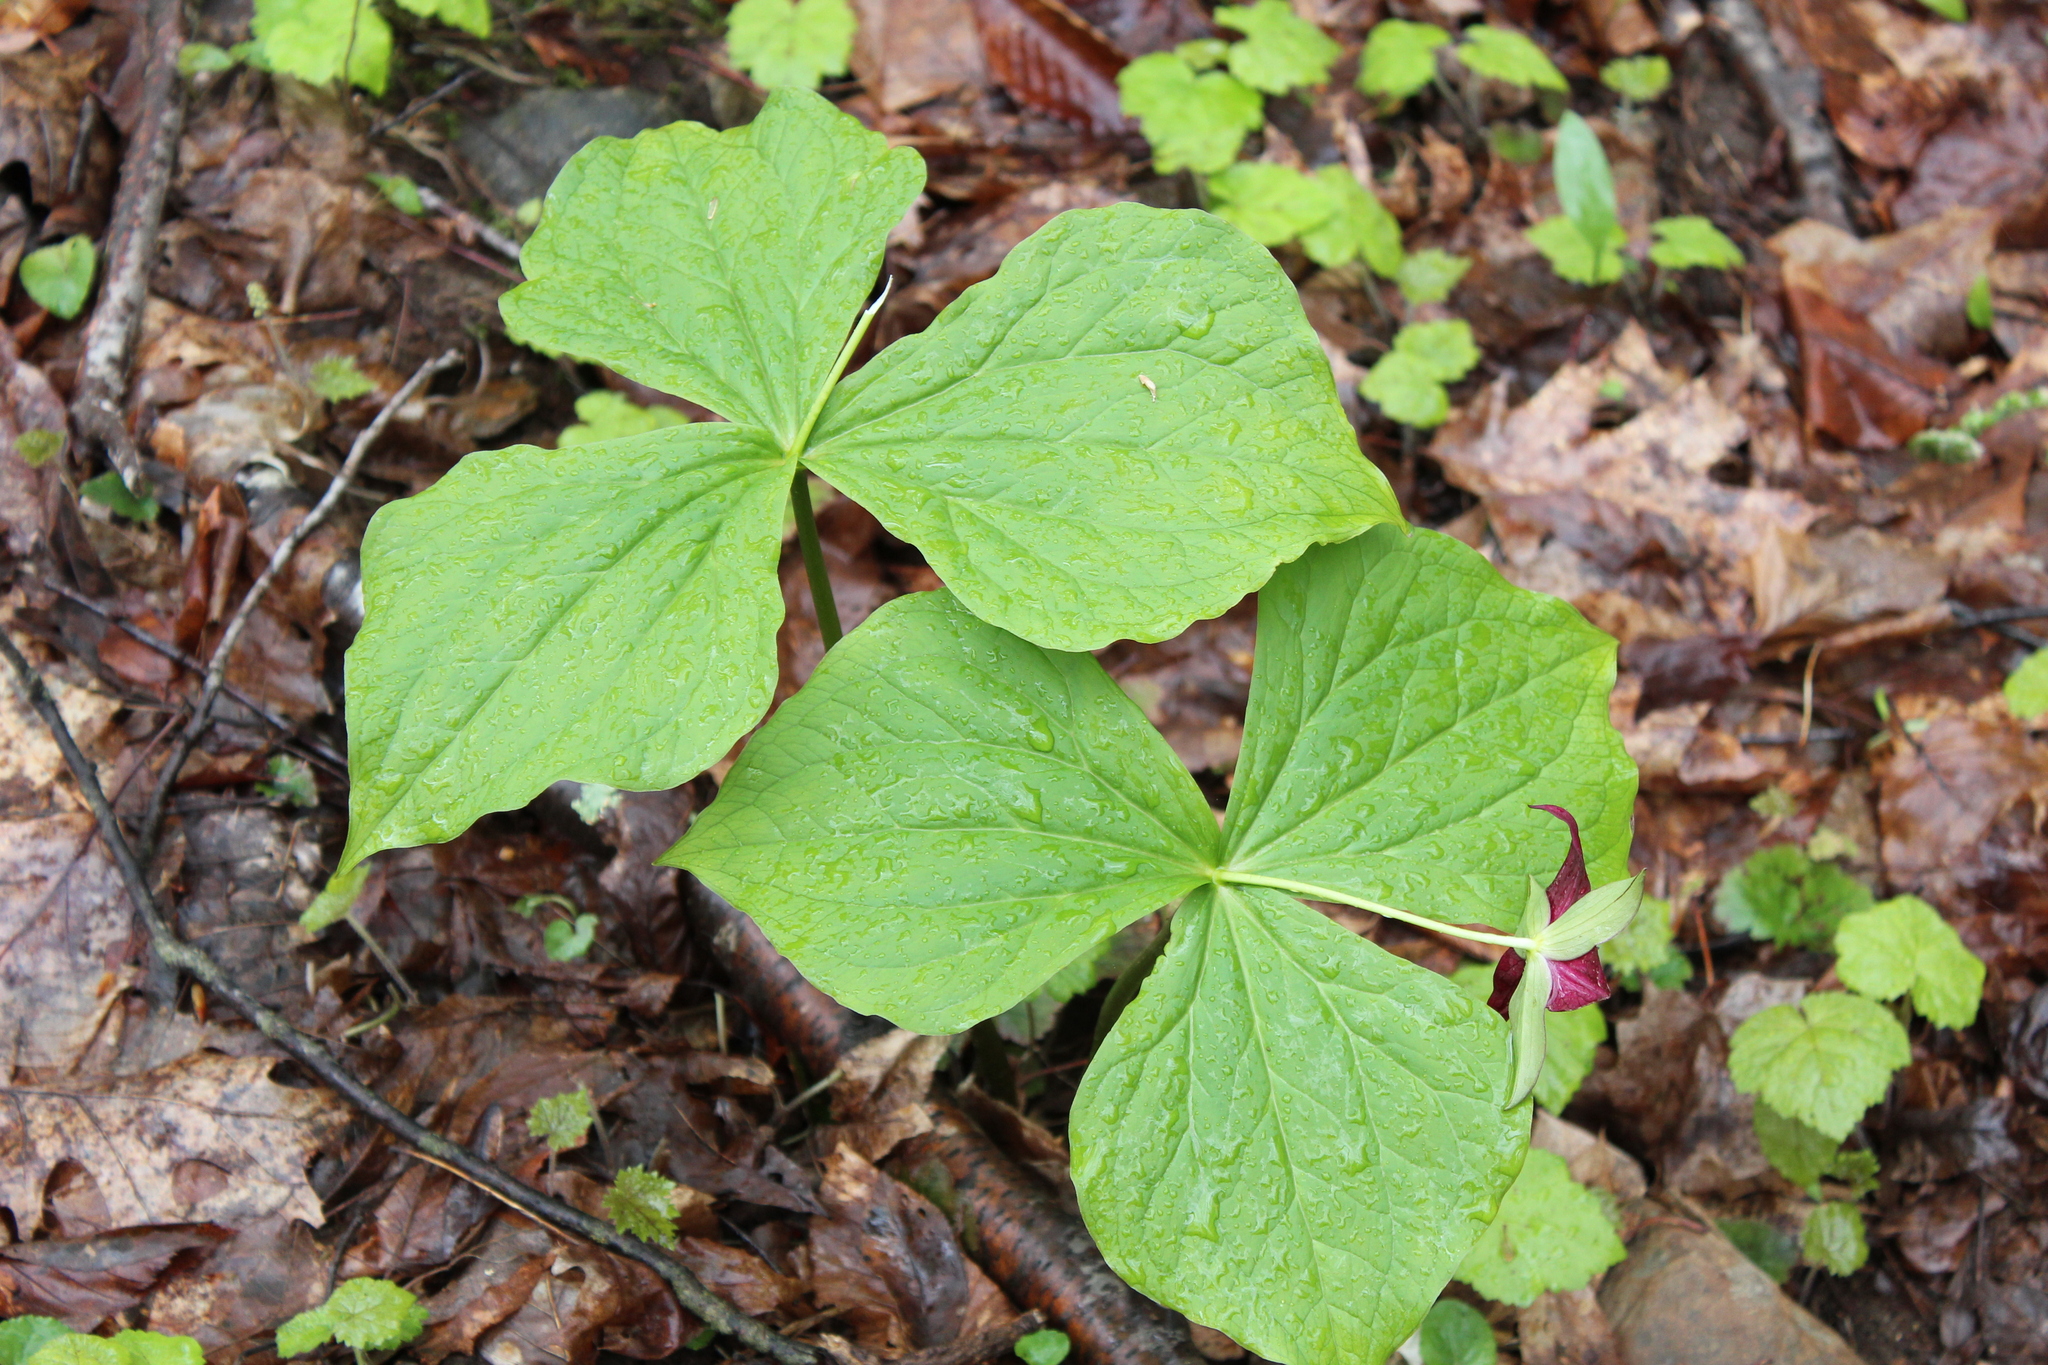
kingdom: Plantae
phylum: Tracheophyta
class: Liliopsida
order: Liliales
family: Melanthiaceae
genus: Trillium
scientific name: Trillium erectum
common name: Purple trillium
